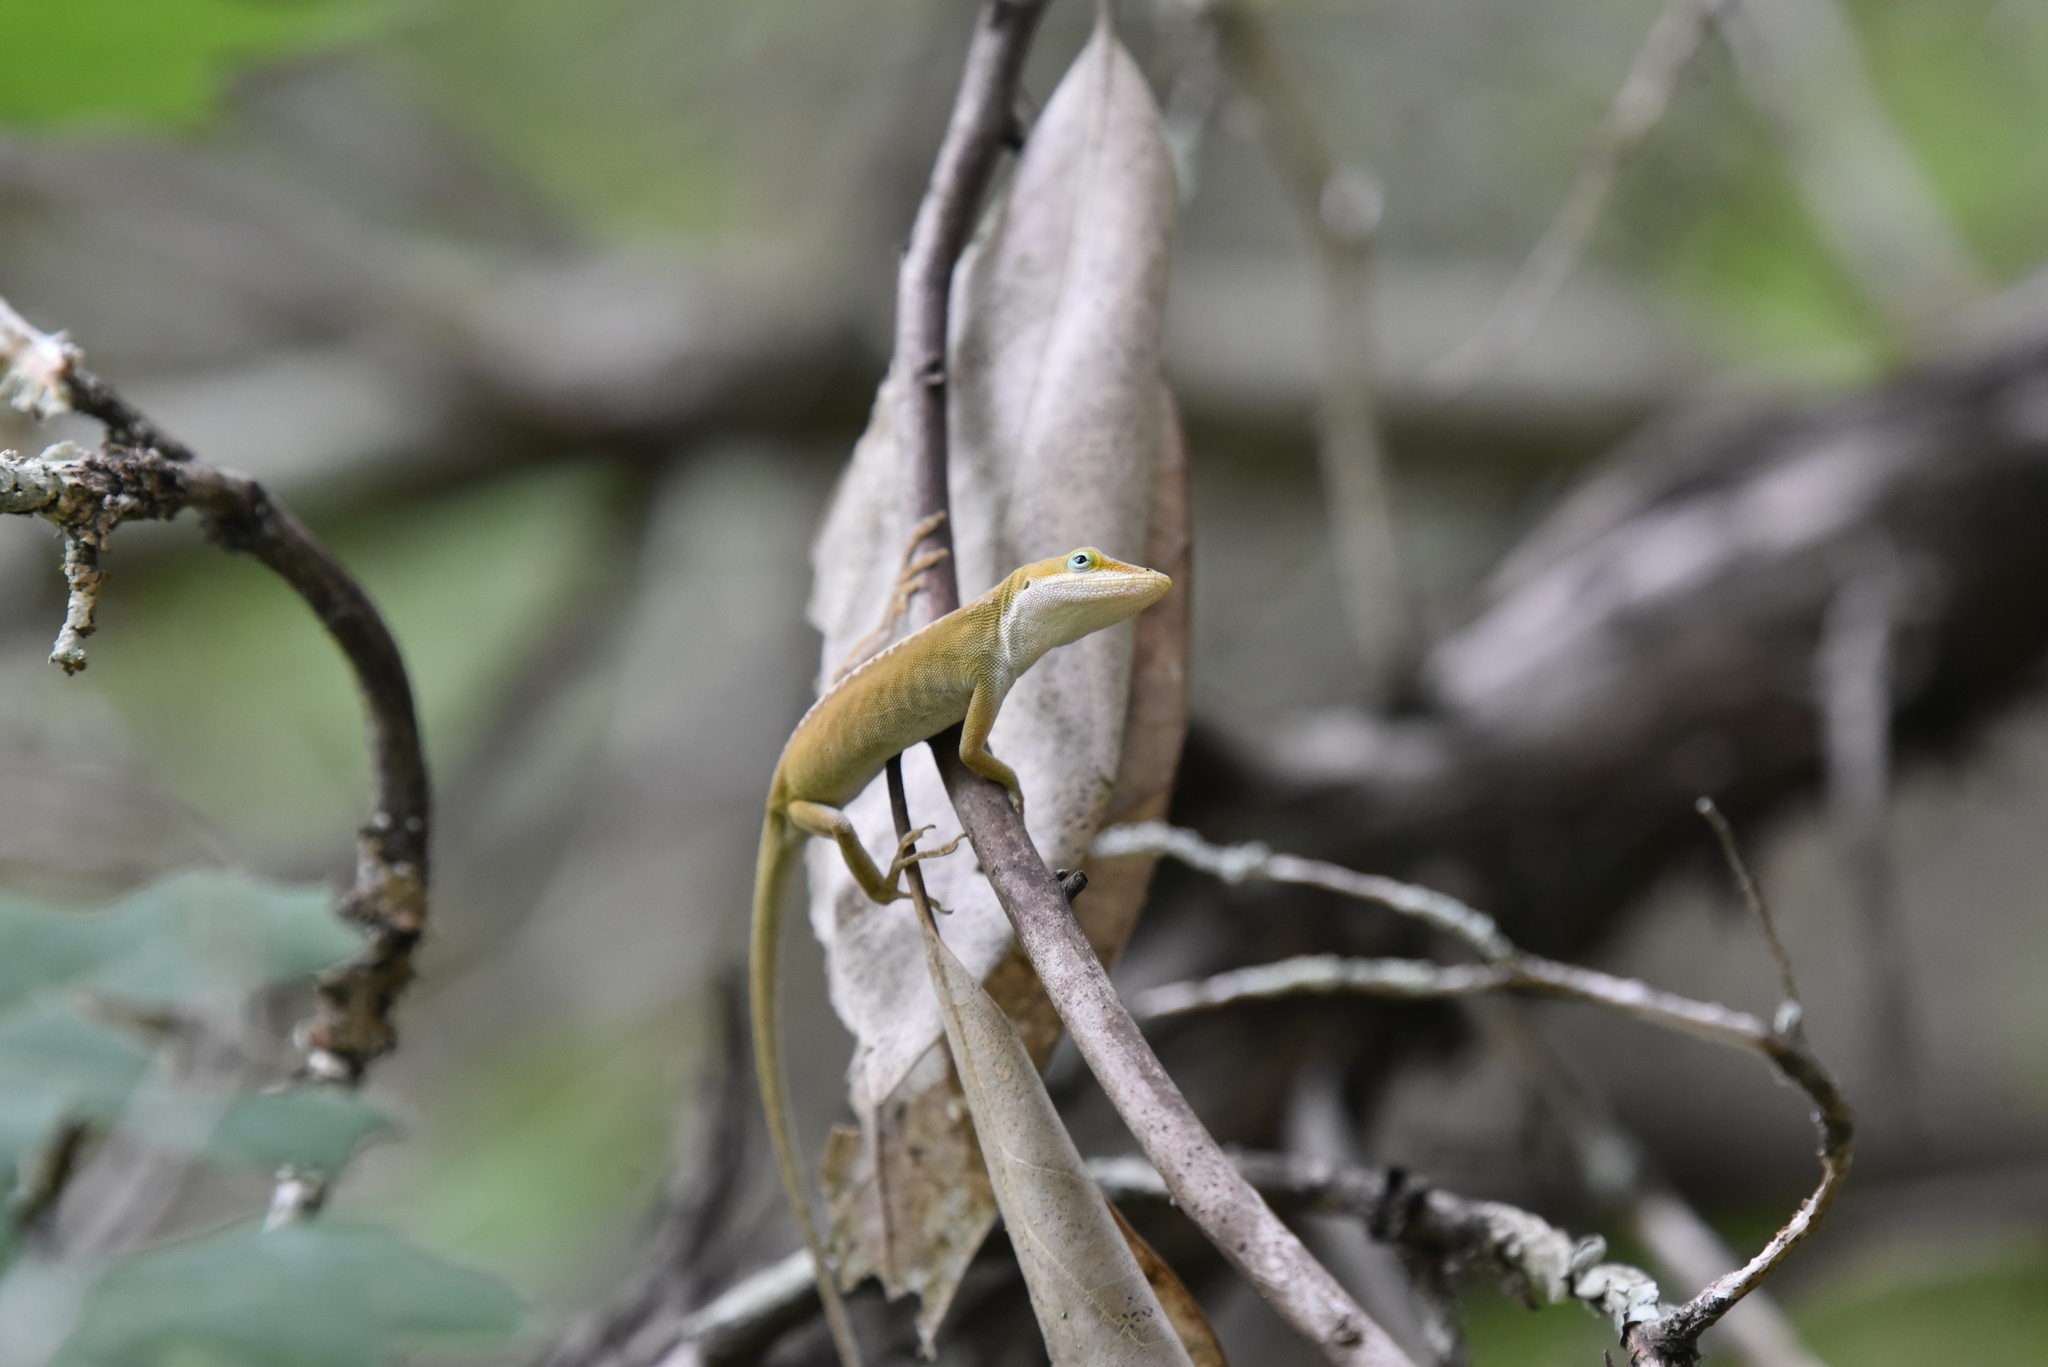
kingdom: Animalia
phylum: Chordata
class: Squamata
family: Dactyloidae
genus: Anolis
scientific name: Anolis carolinensis
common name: Green anole
